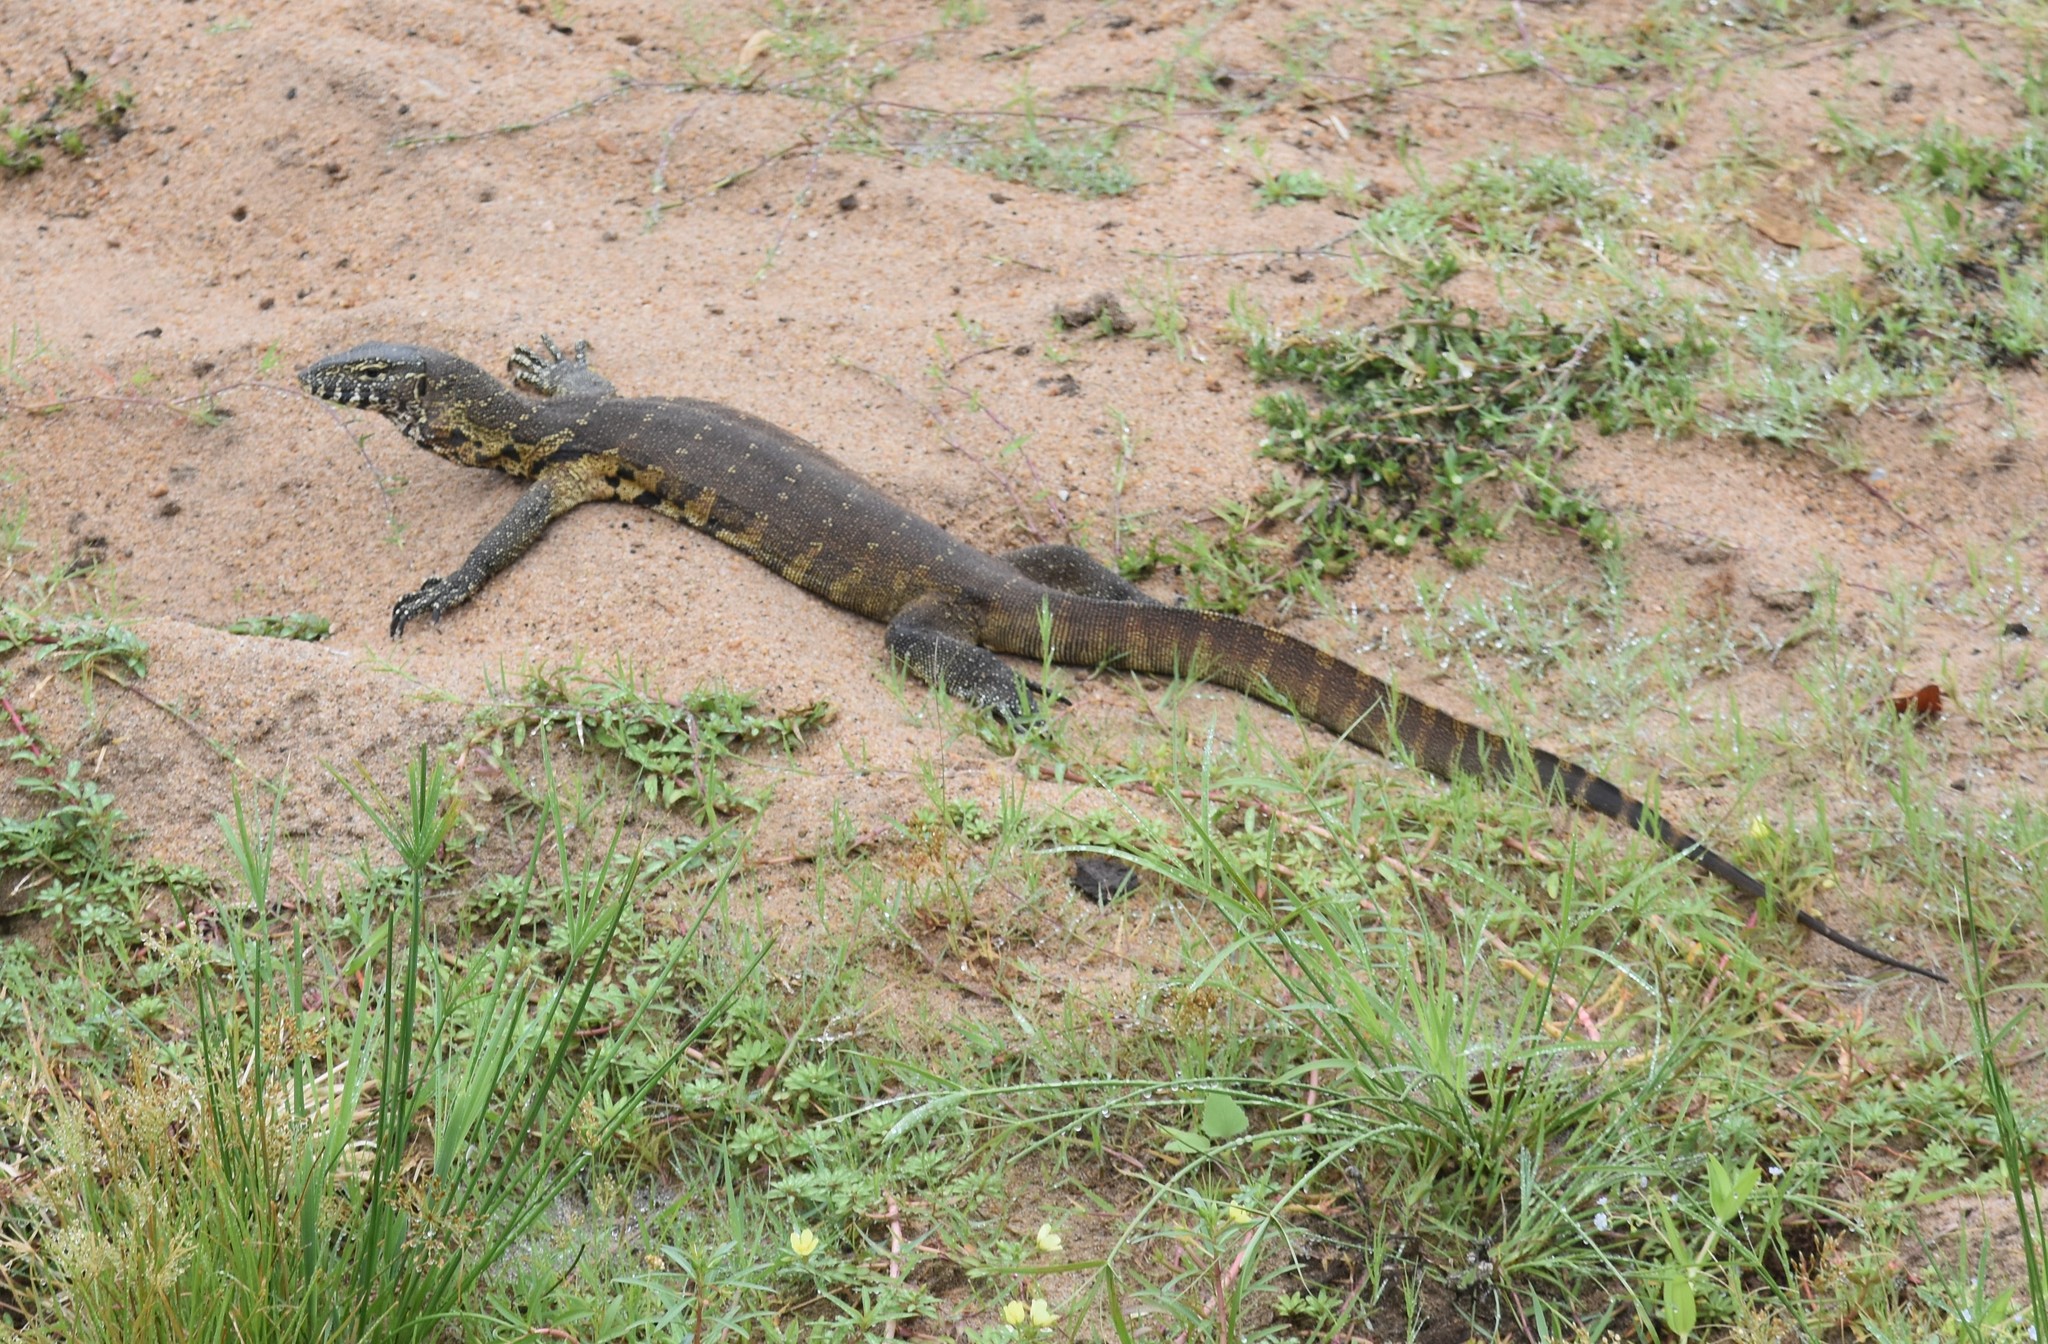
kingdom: Animalia
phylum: Chordata
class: Squamata
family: Varanidae
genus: Varanus
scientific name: Varanus niloticus
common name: Nile monitor
